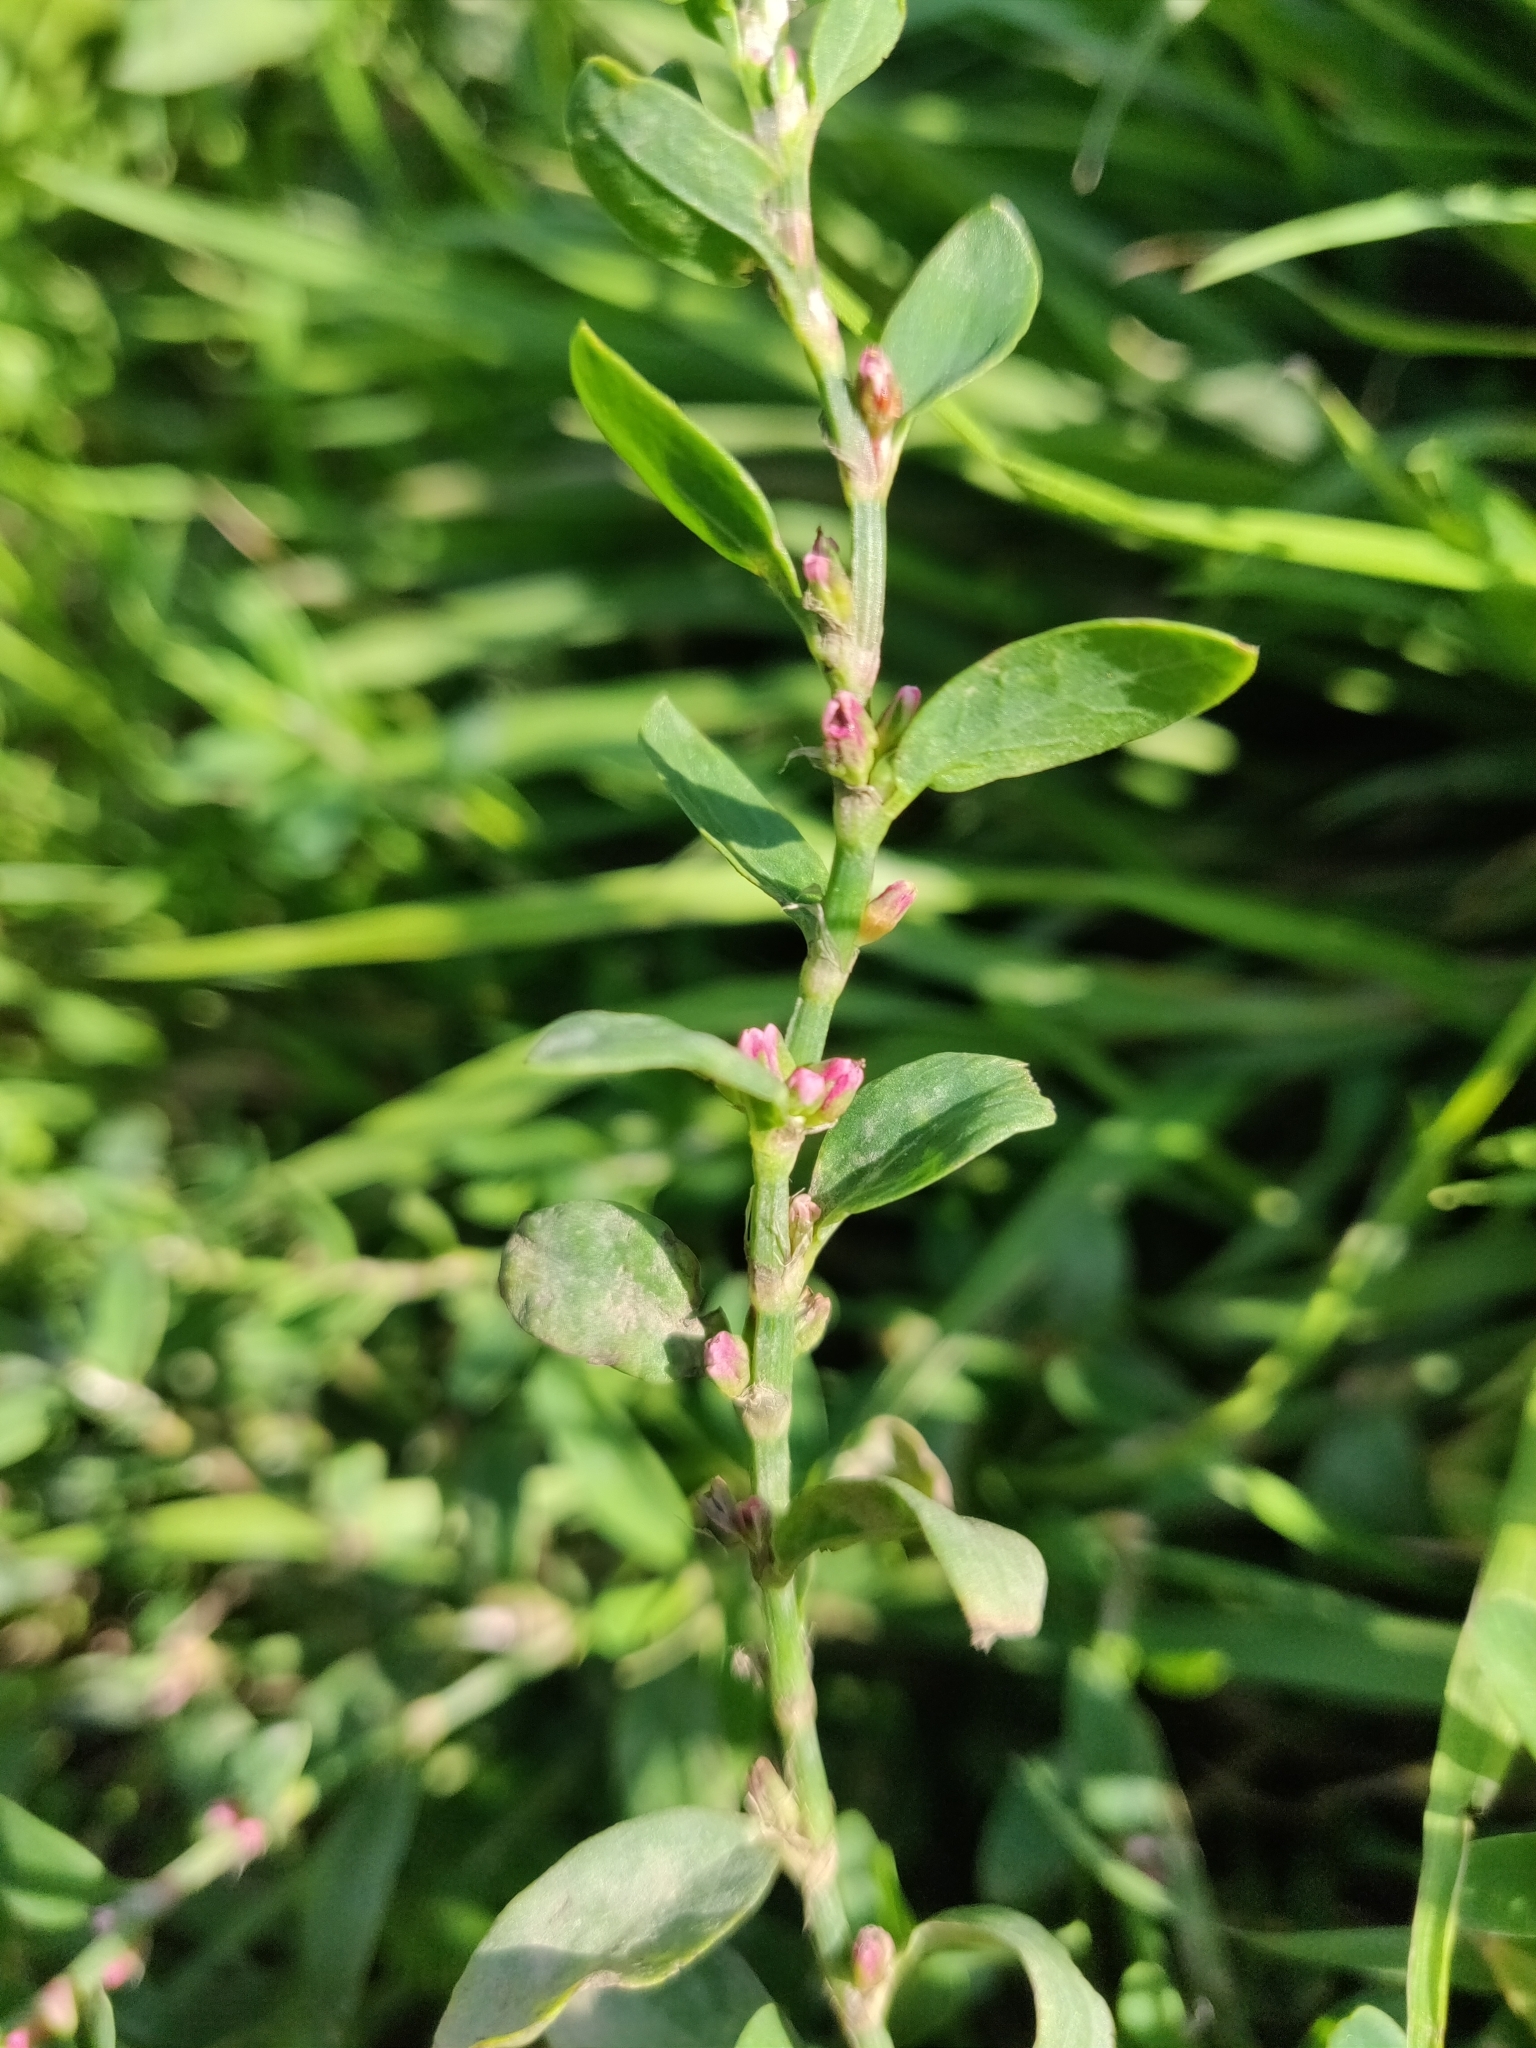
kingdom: Plantae
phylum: Tracheophyta
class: Magnoliopsida
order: Caryophyllales
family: Polygonaceae
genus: Polygonum
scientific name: Polygonum aviculare
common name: Prostrate knotweed
